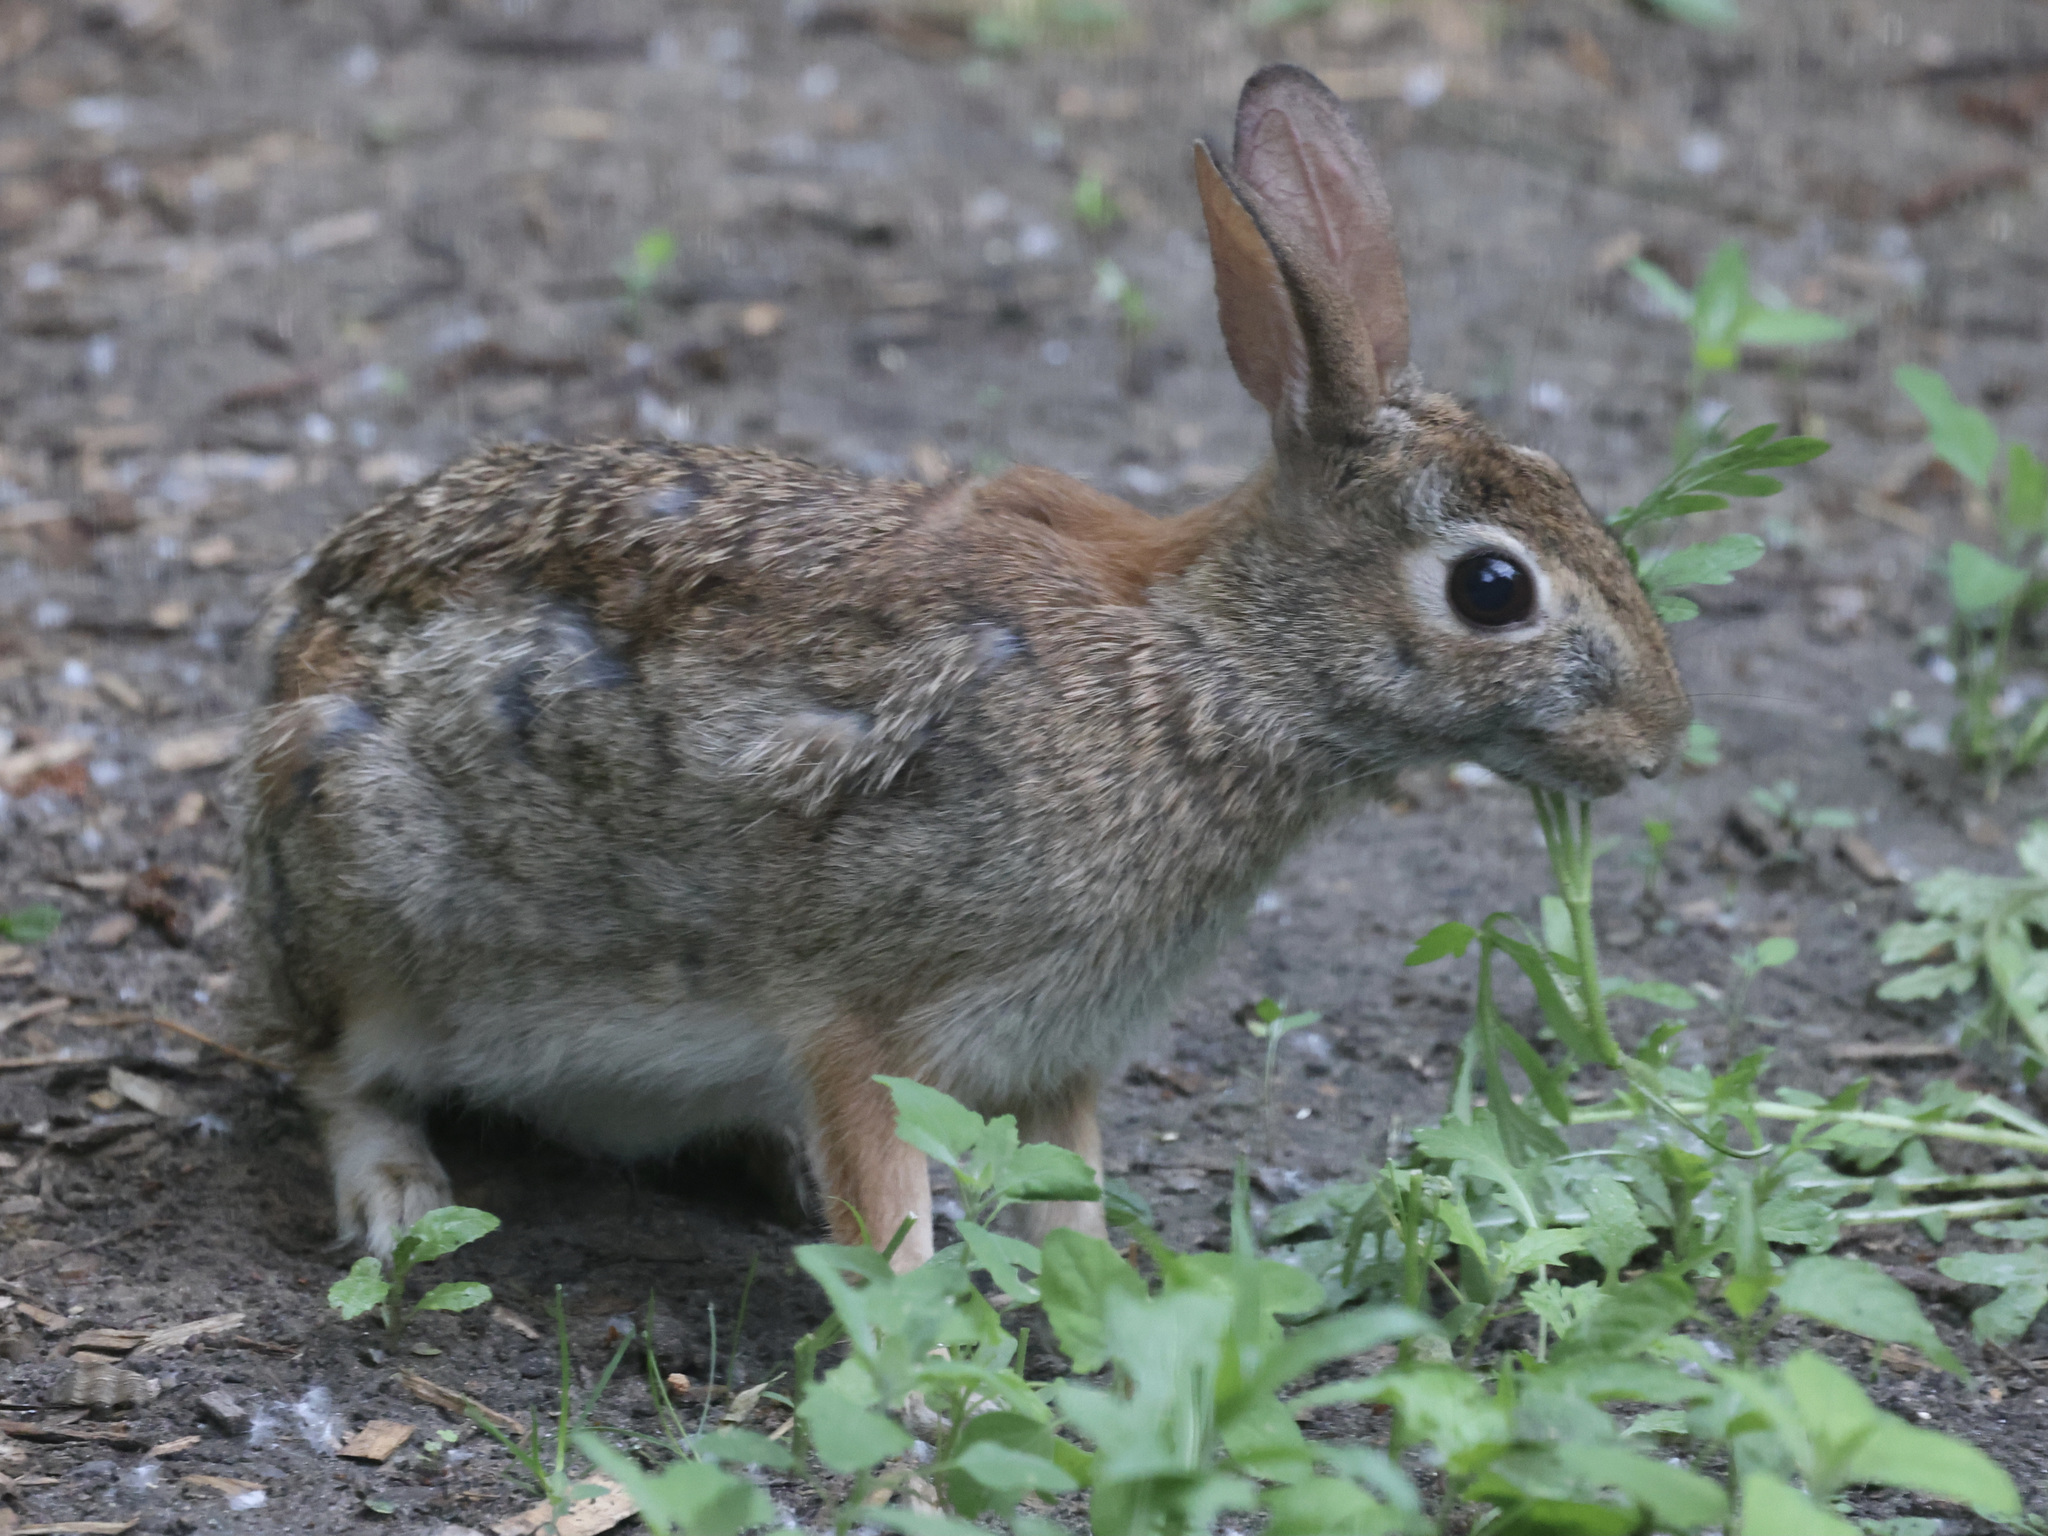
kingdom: Animalia
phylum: Chordata
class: Mammalia
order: Lagomorpha
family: Leporidae
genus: Sylvilagus
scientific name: Sylvilagus floridanus
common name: Eastern cottontail
